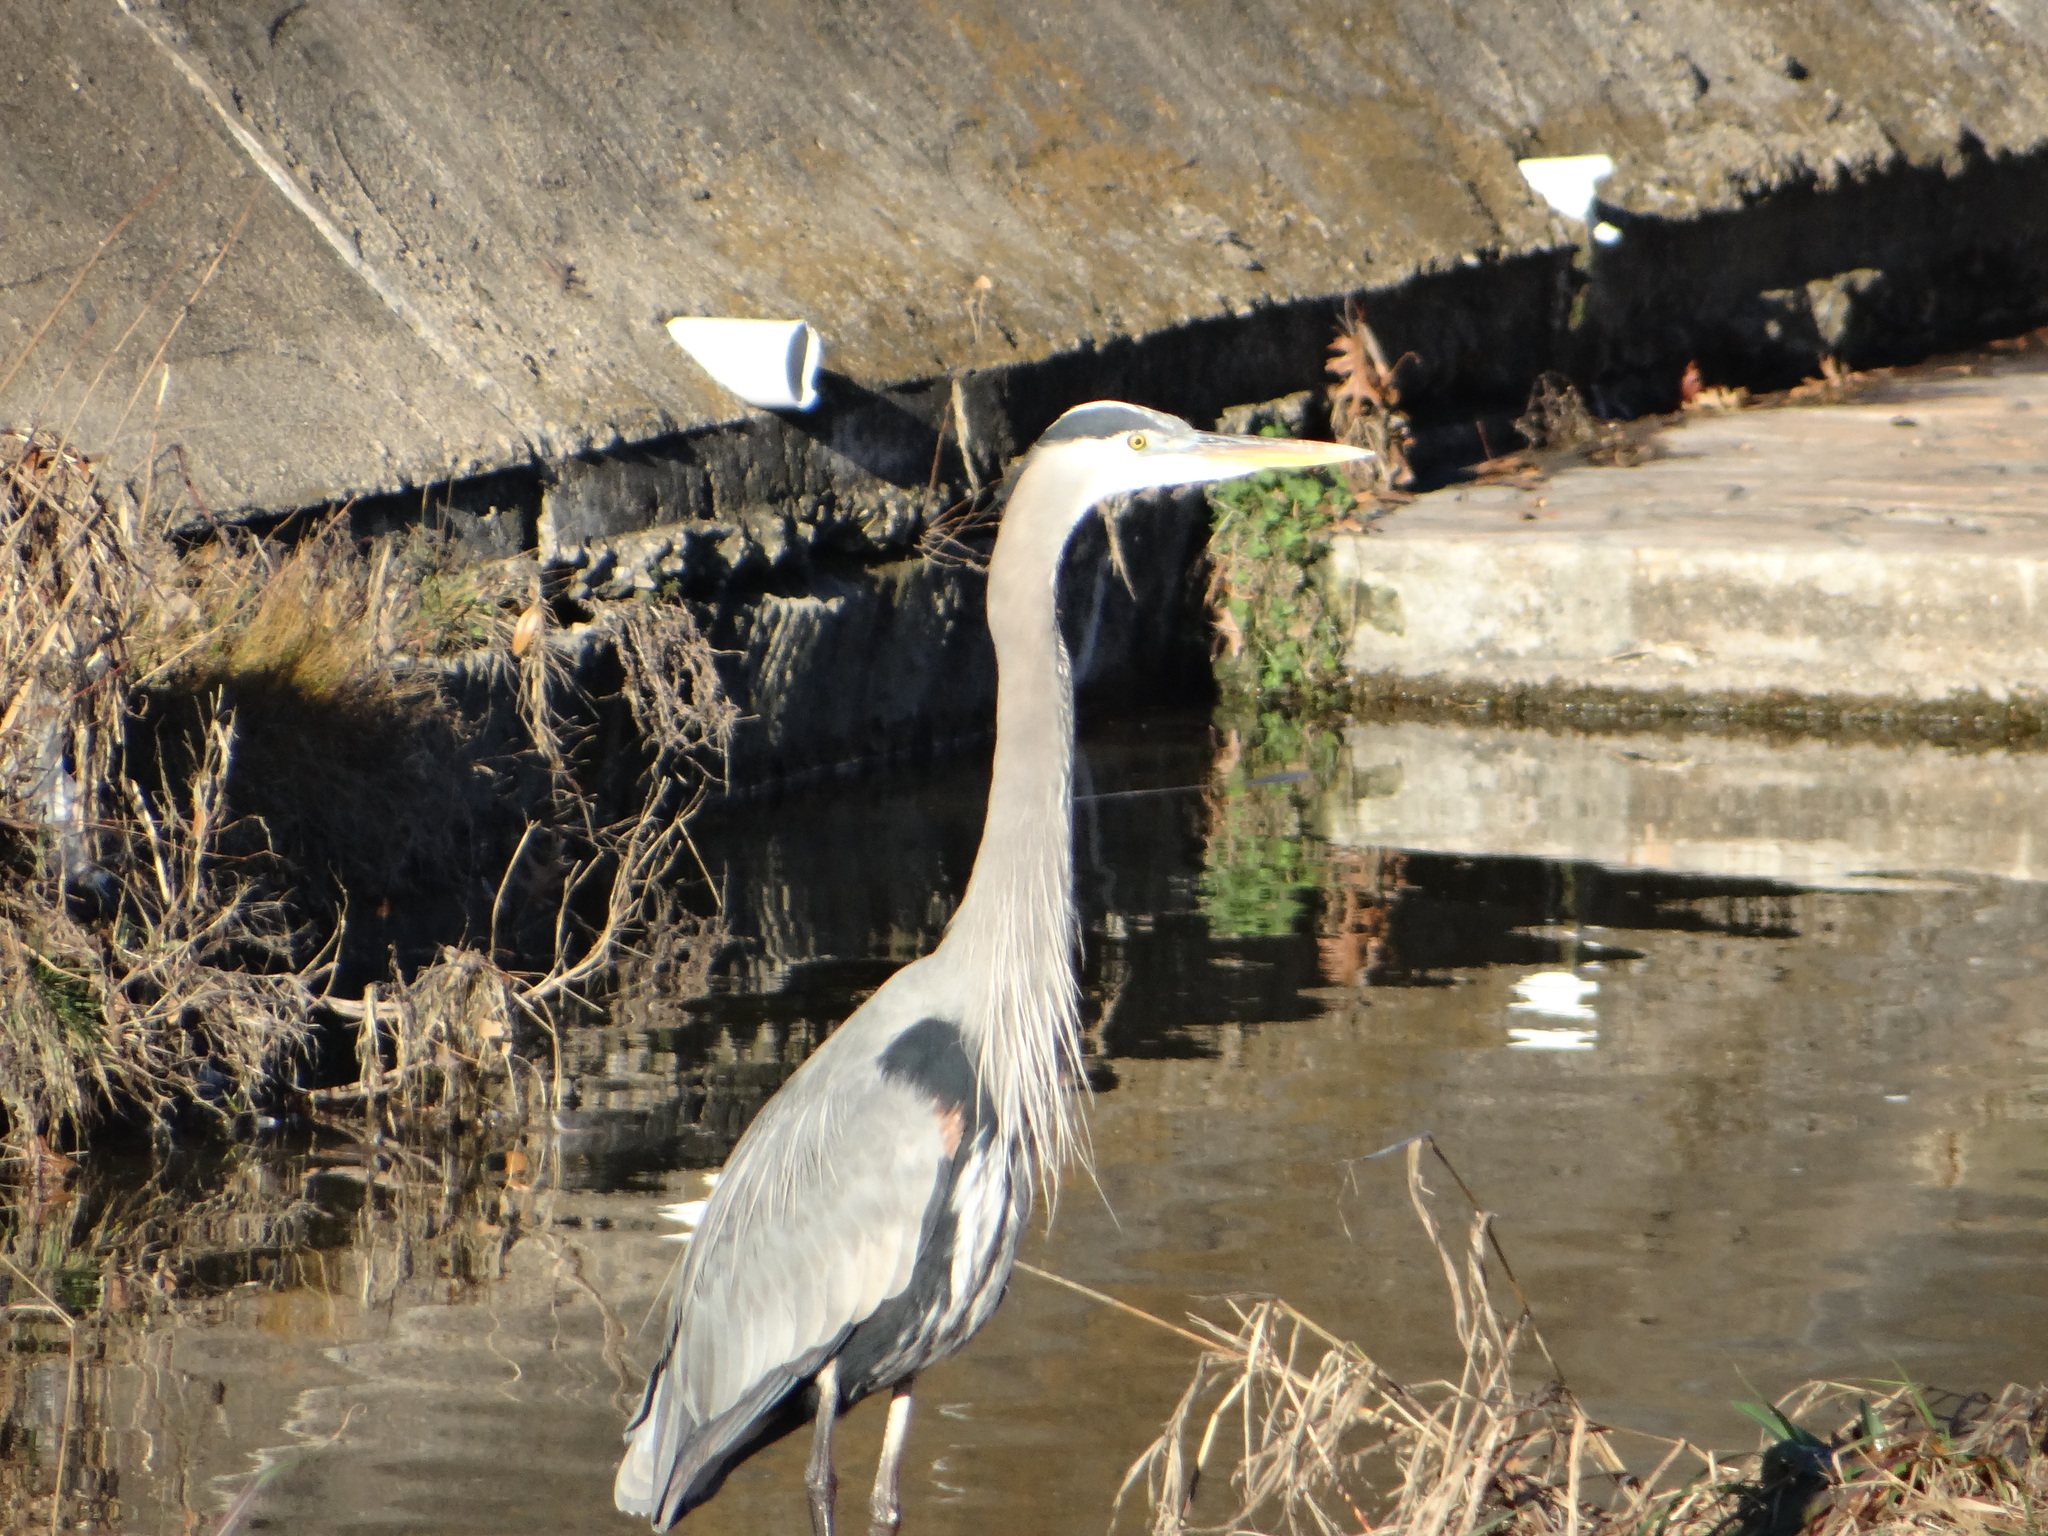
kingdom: Animalia
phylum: Chordata
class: Aves
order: Pelecaniformes
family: Ardeidae
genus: Ardea
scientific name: Ardea herodias
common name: Great blue heron
